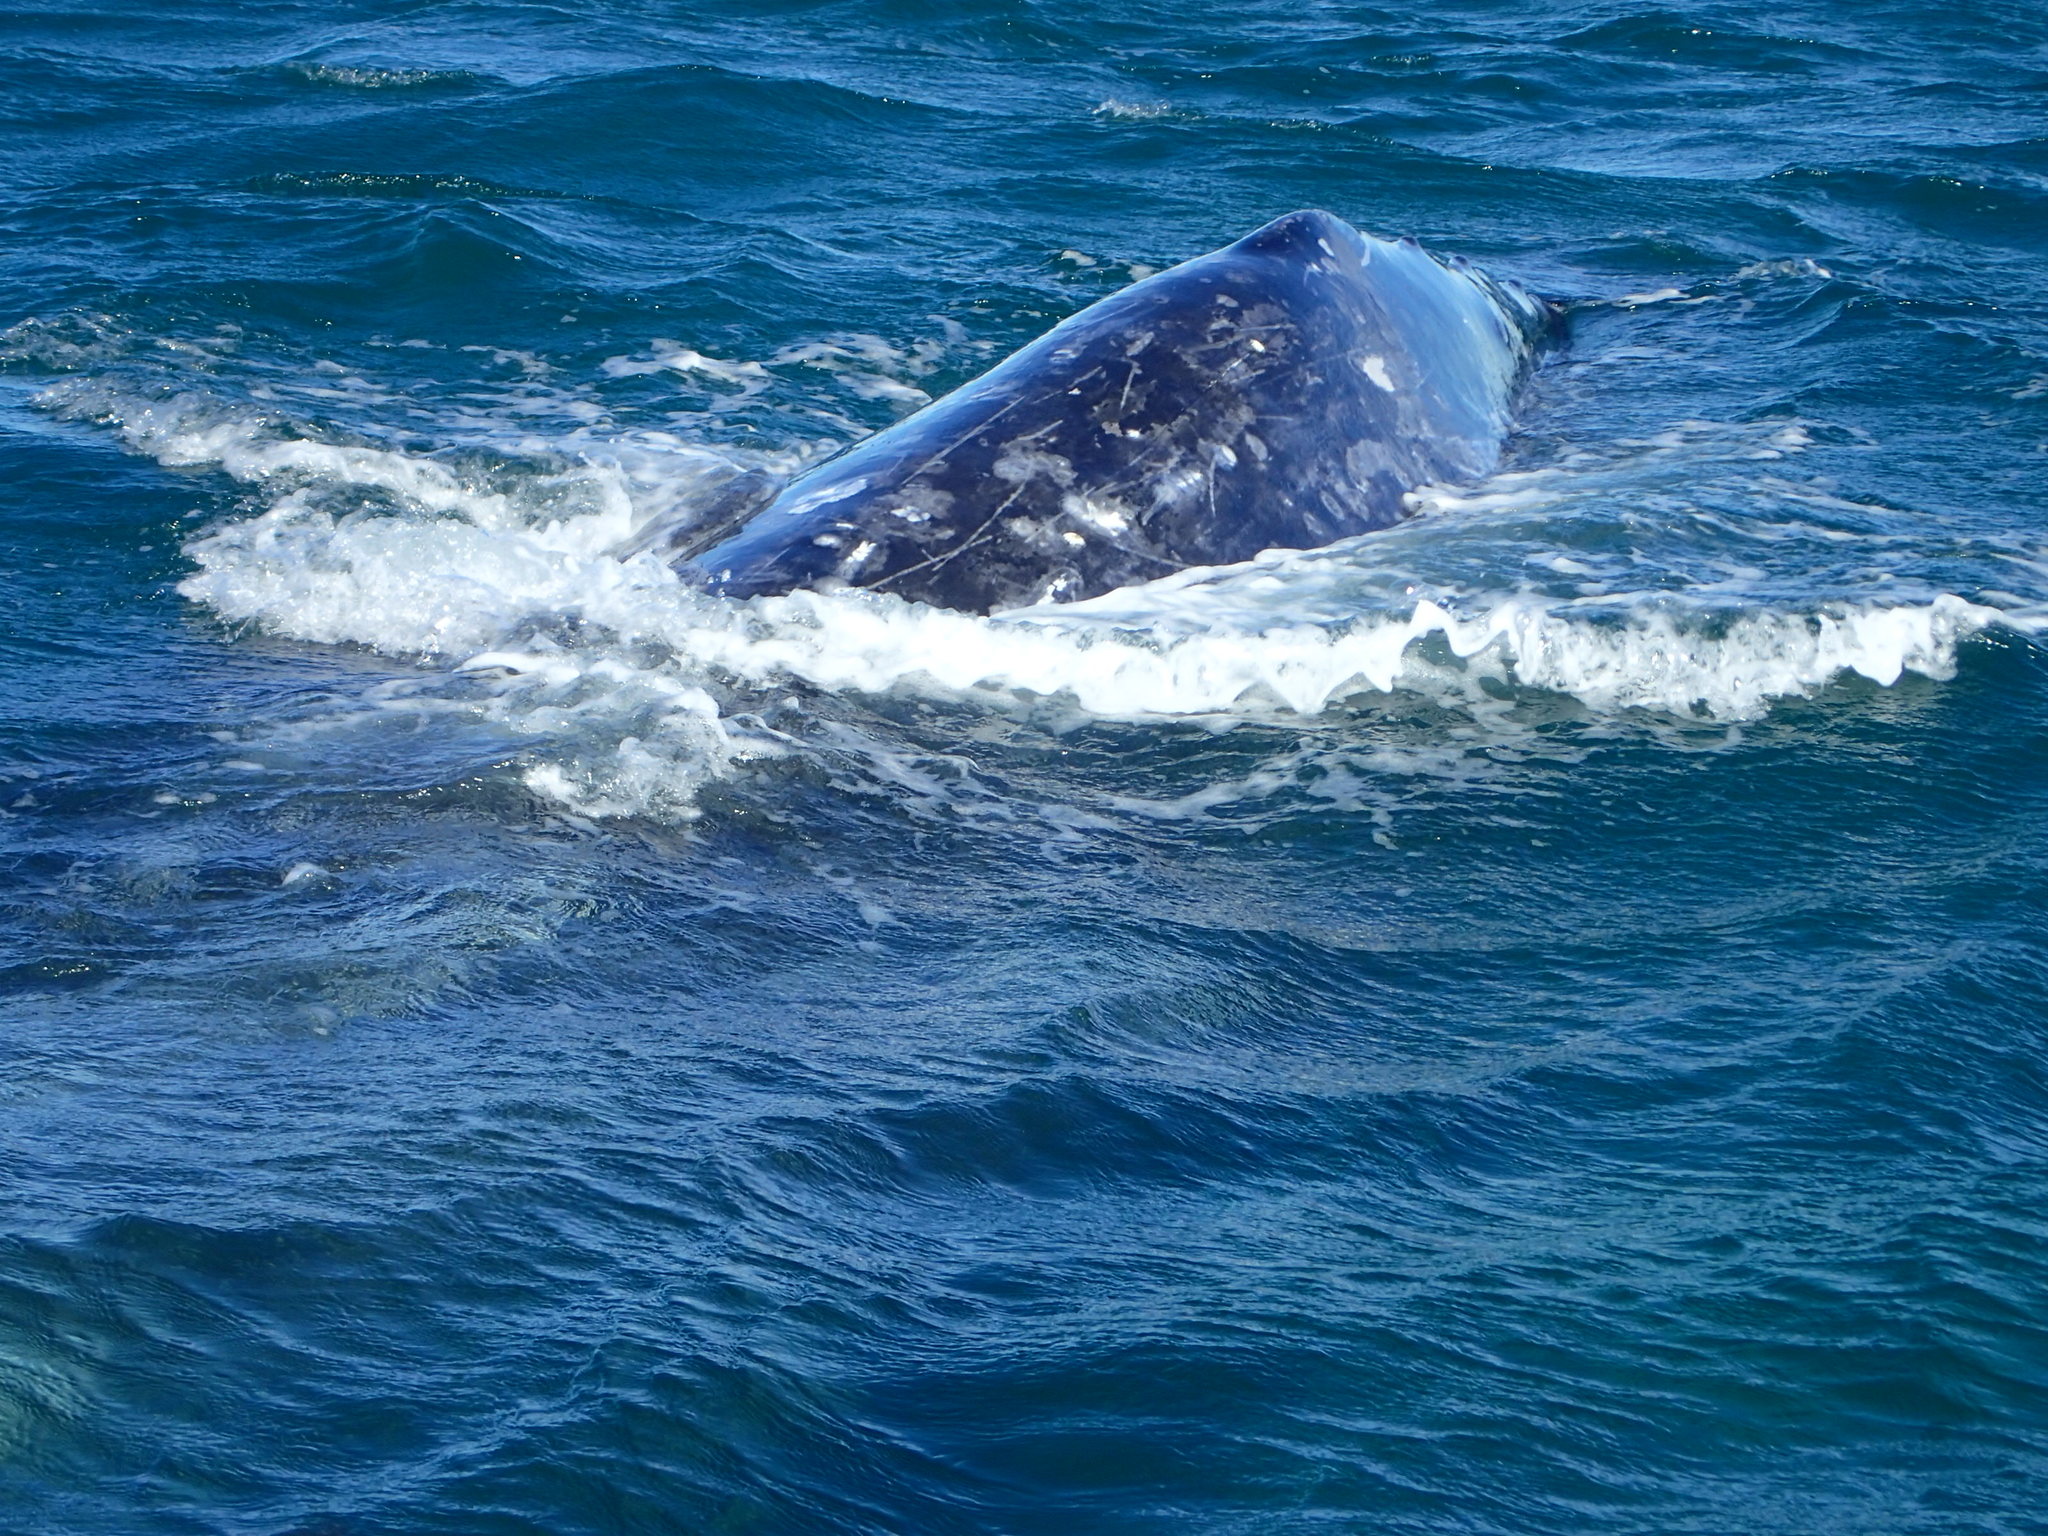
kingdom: Animalia
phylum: Chordata
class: Mammalia
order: Cetacea
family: Eschrichtiidae
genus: Eschrichtius
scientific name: Eschrichtius robustus
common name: Gray whale
